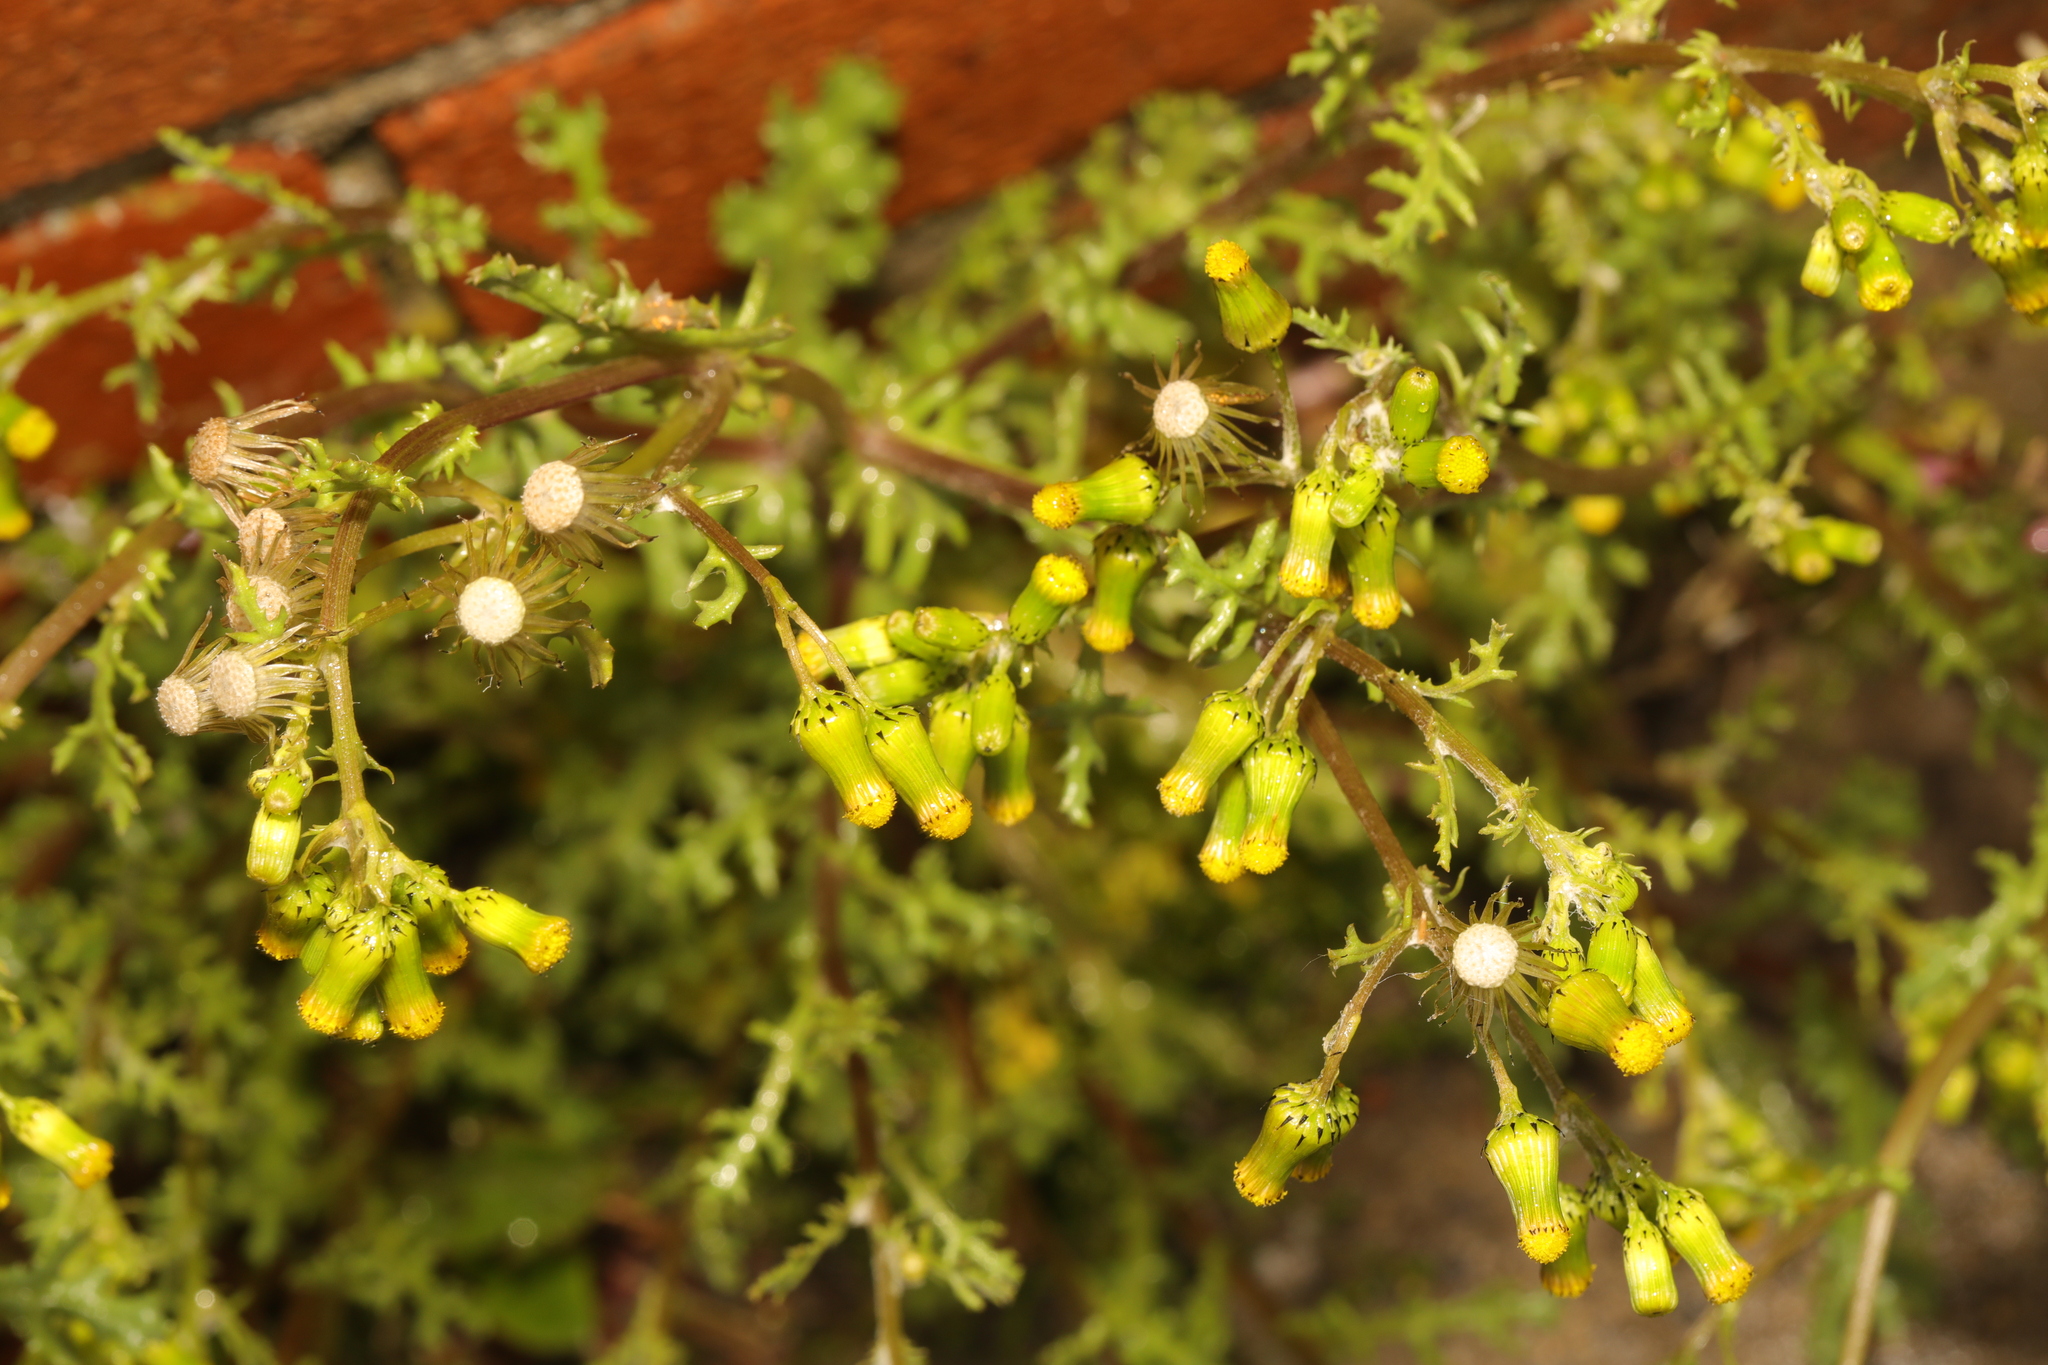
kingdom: Plantae
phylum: Tracheophyta
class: Magnoliopsida
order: Asterales
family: Asteraceae
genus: Senecio
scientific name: Senecio vulgaris
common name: Old-man-in-the-spring
